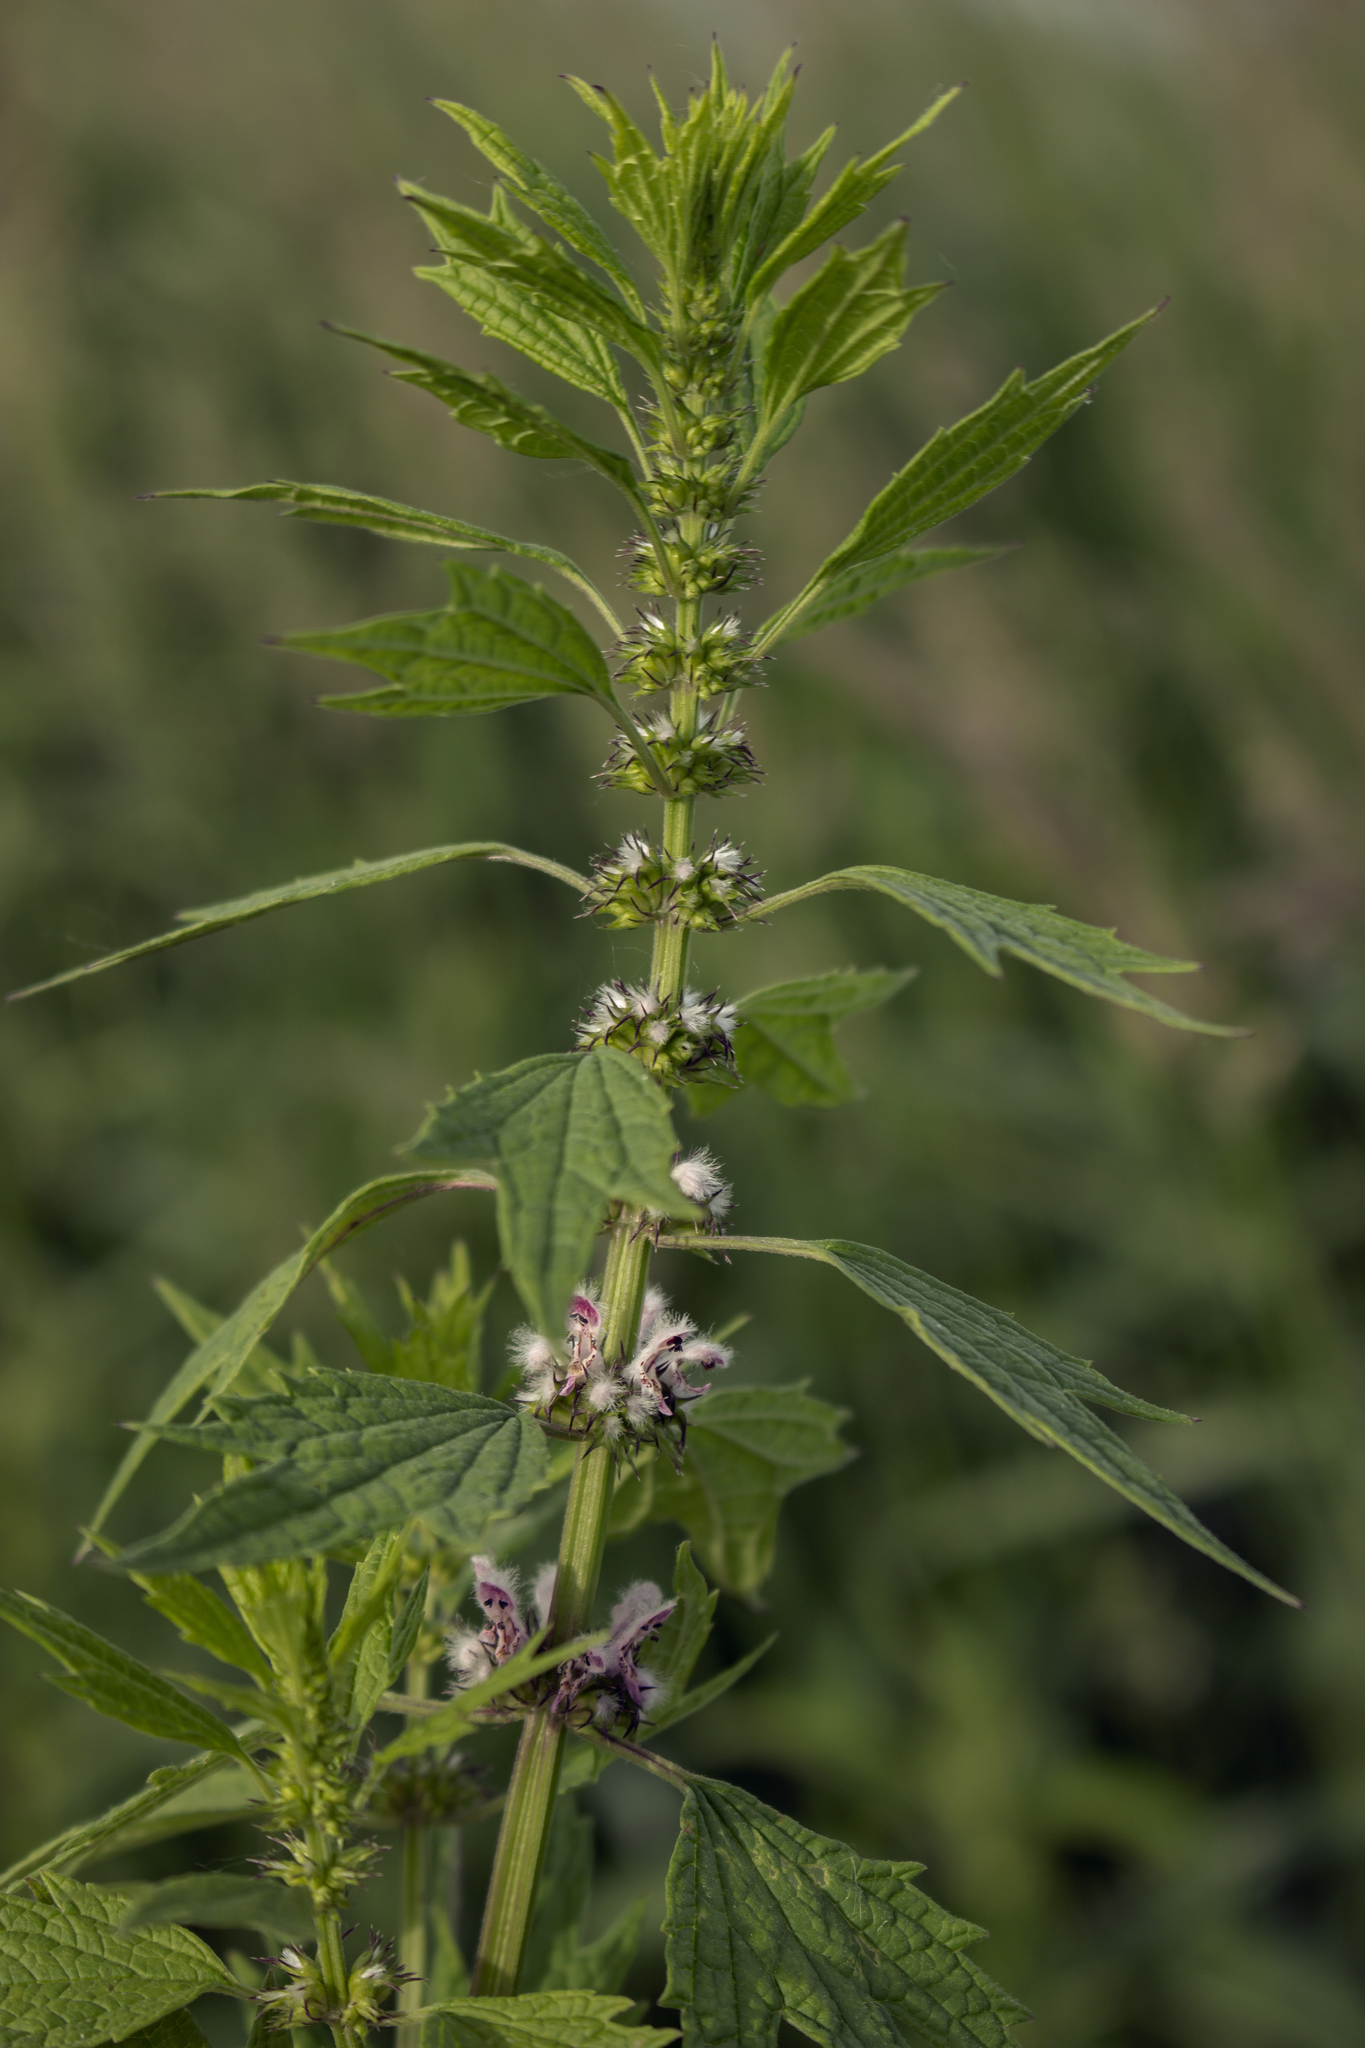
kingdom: Plantae
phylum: Tracheophyta
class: Magnoliopsida
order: Lamiales
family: Lamiaceae
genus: Leonurus
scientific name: Leonurus cardiaca
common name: Motherwort
